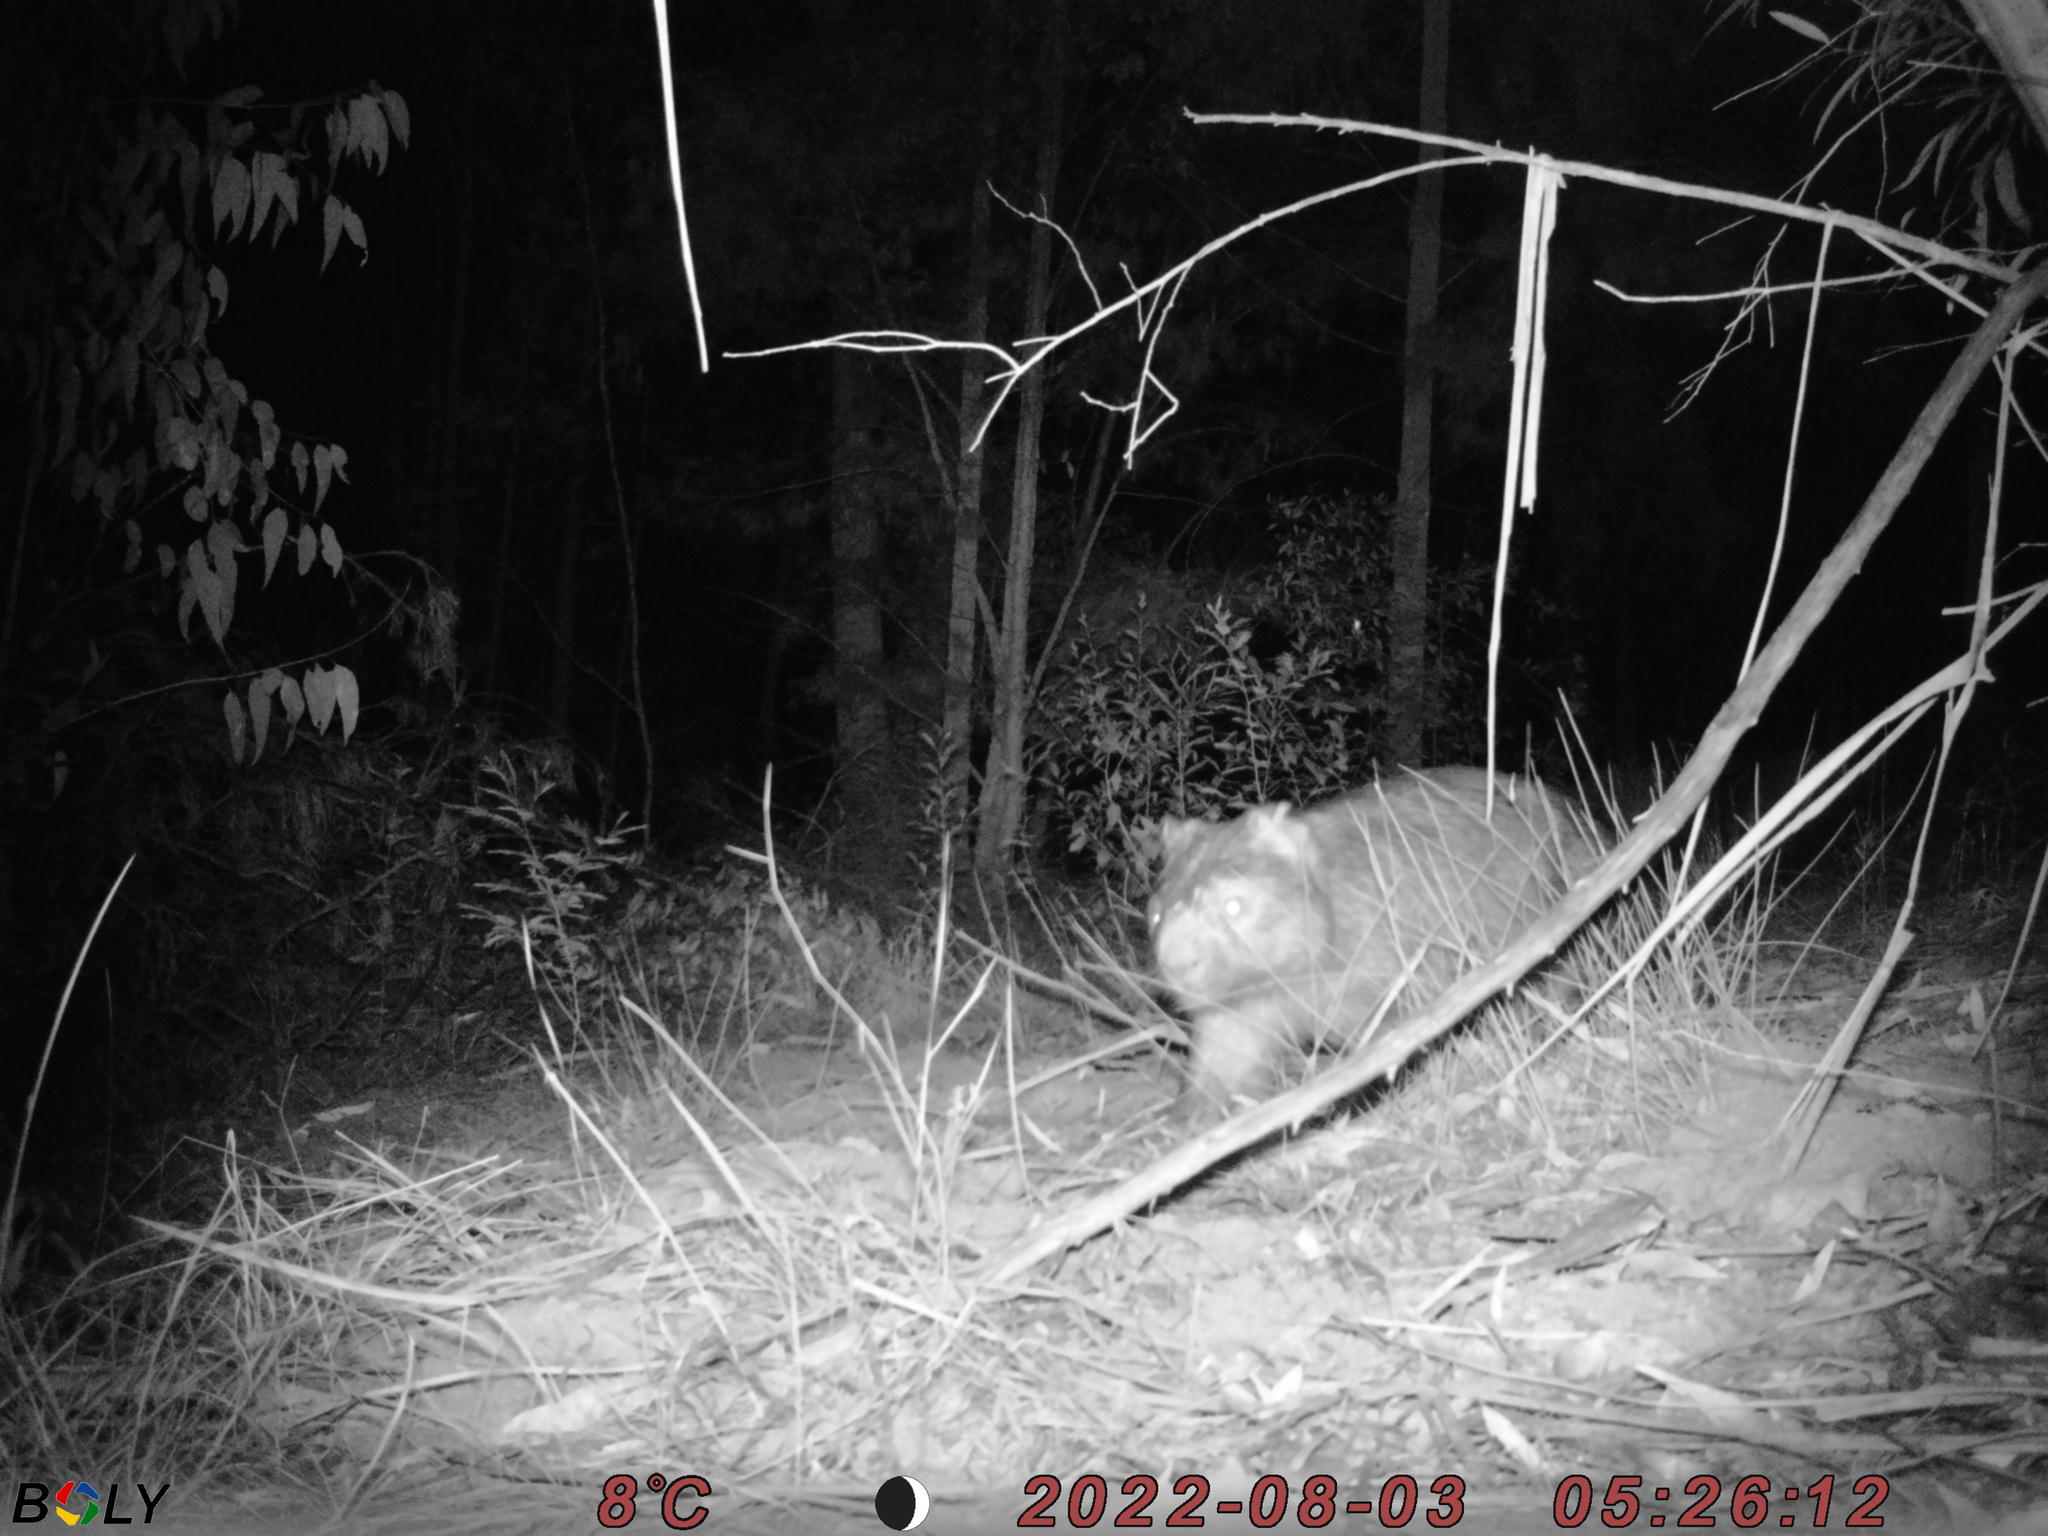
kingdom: Animalia
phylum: Chordata
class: Mammalia
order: Diprotodontia
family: Vombatidae
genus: Vombatus
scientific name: Vombatus ursinus
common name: Common wombat
